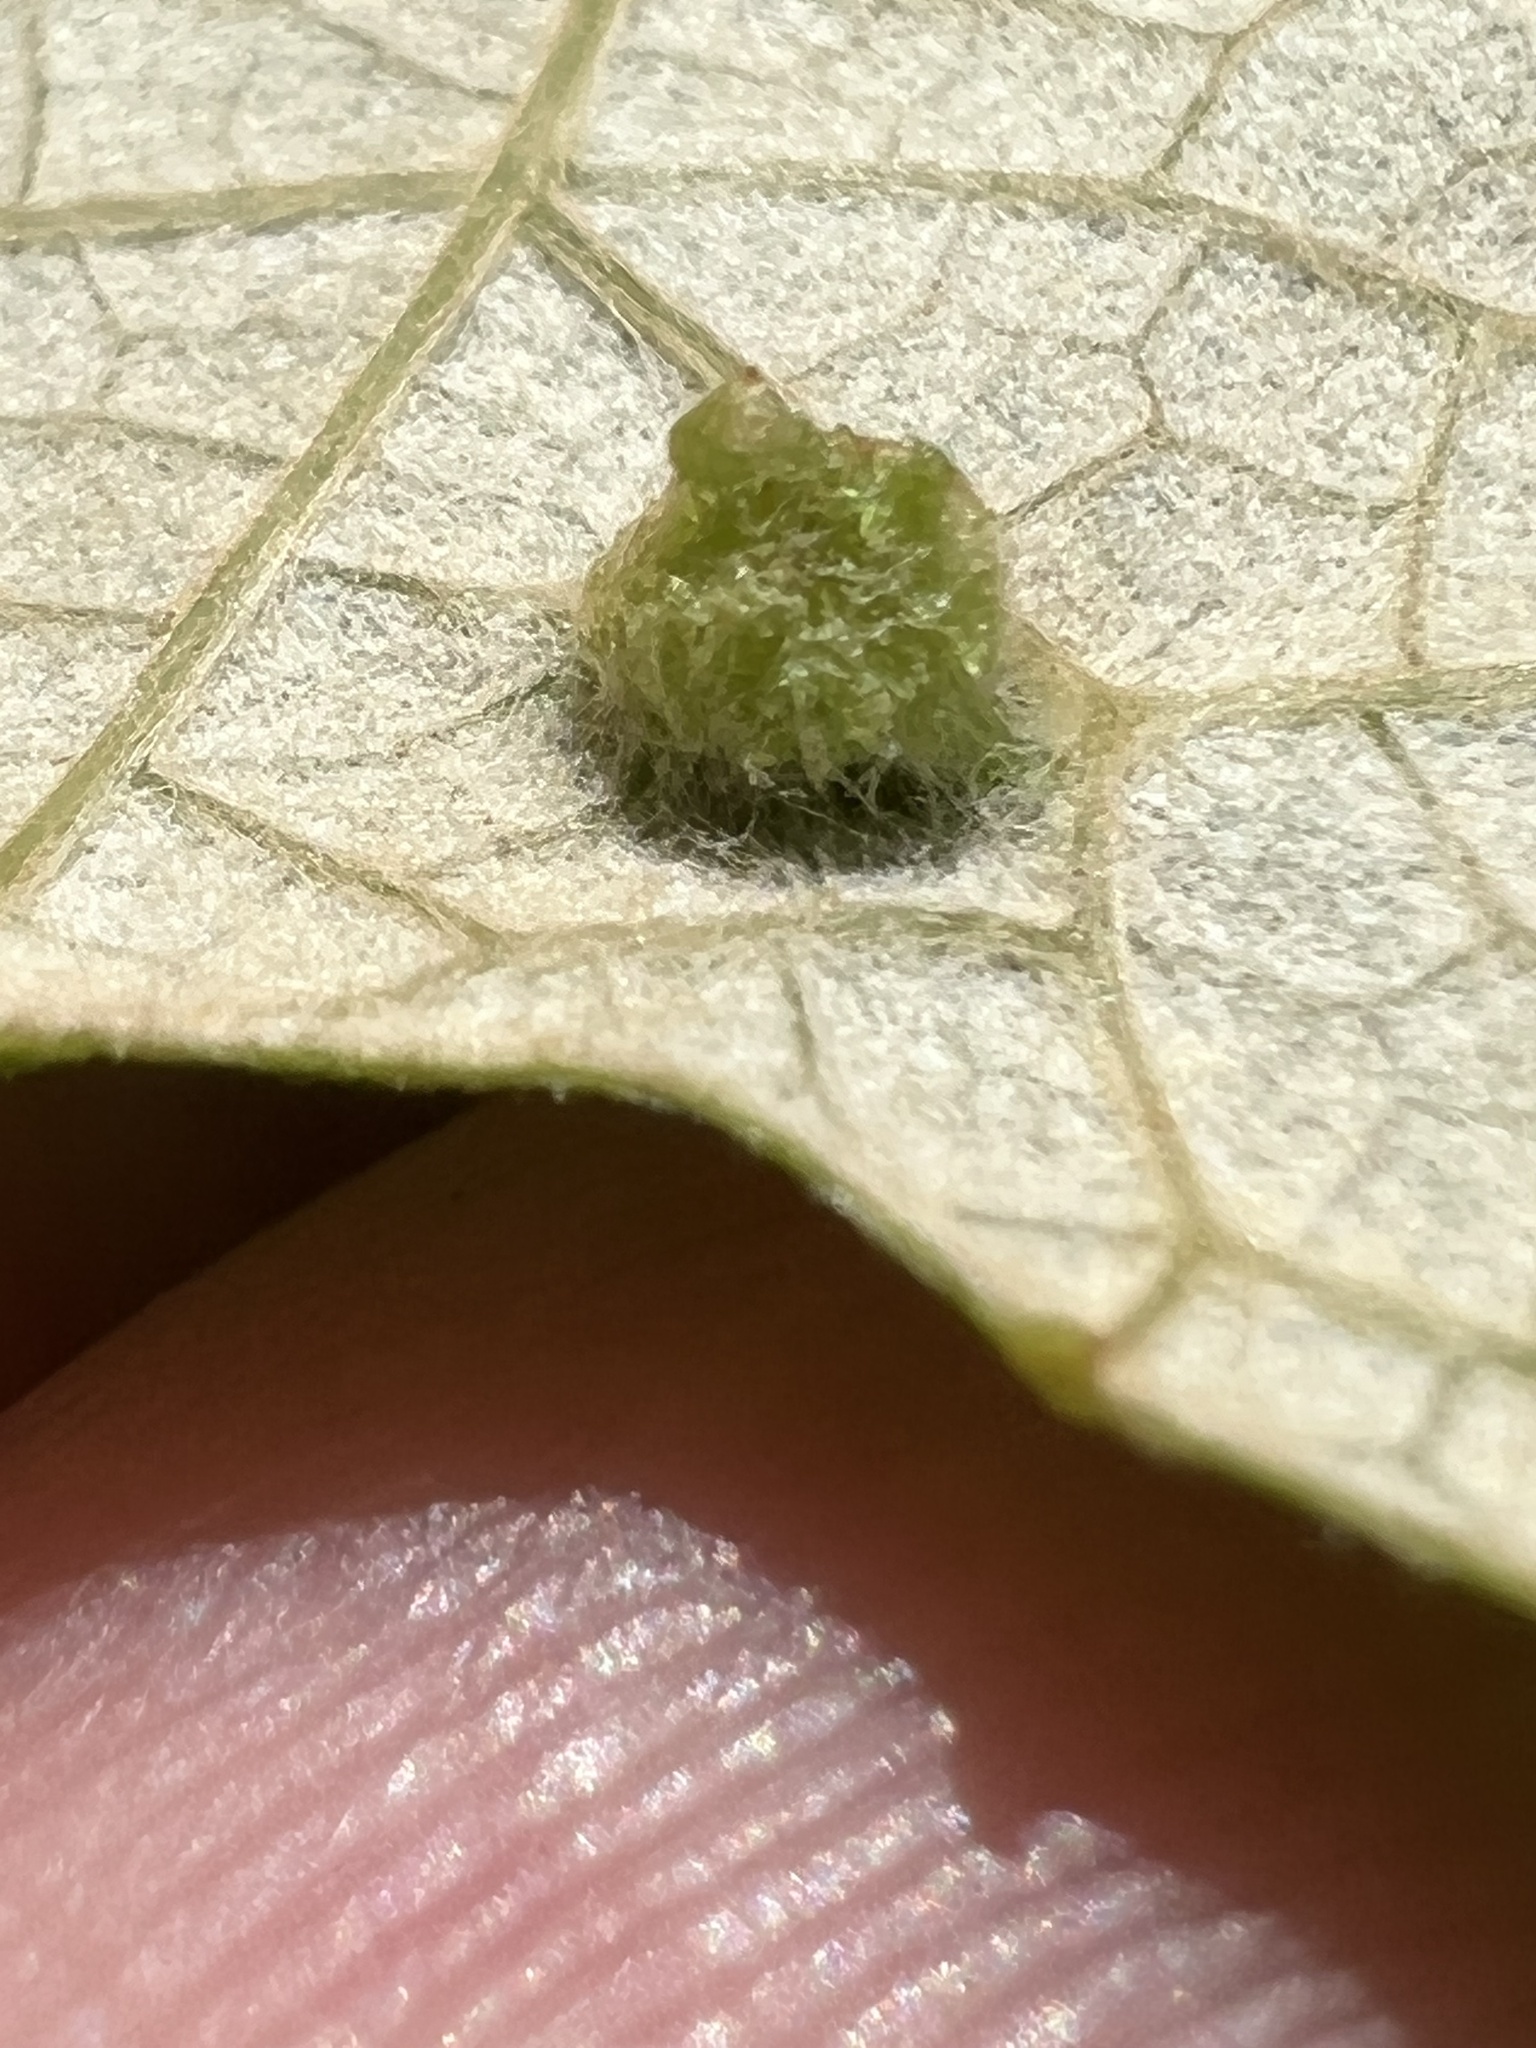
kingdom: Animalia
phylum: Arthropoda
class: Insecta
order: Hemiptera
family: Phylloxeridae
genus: Daktulosphaira
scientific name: Daktulosphaira vitifoliae
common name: Grape phylloxera
